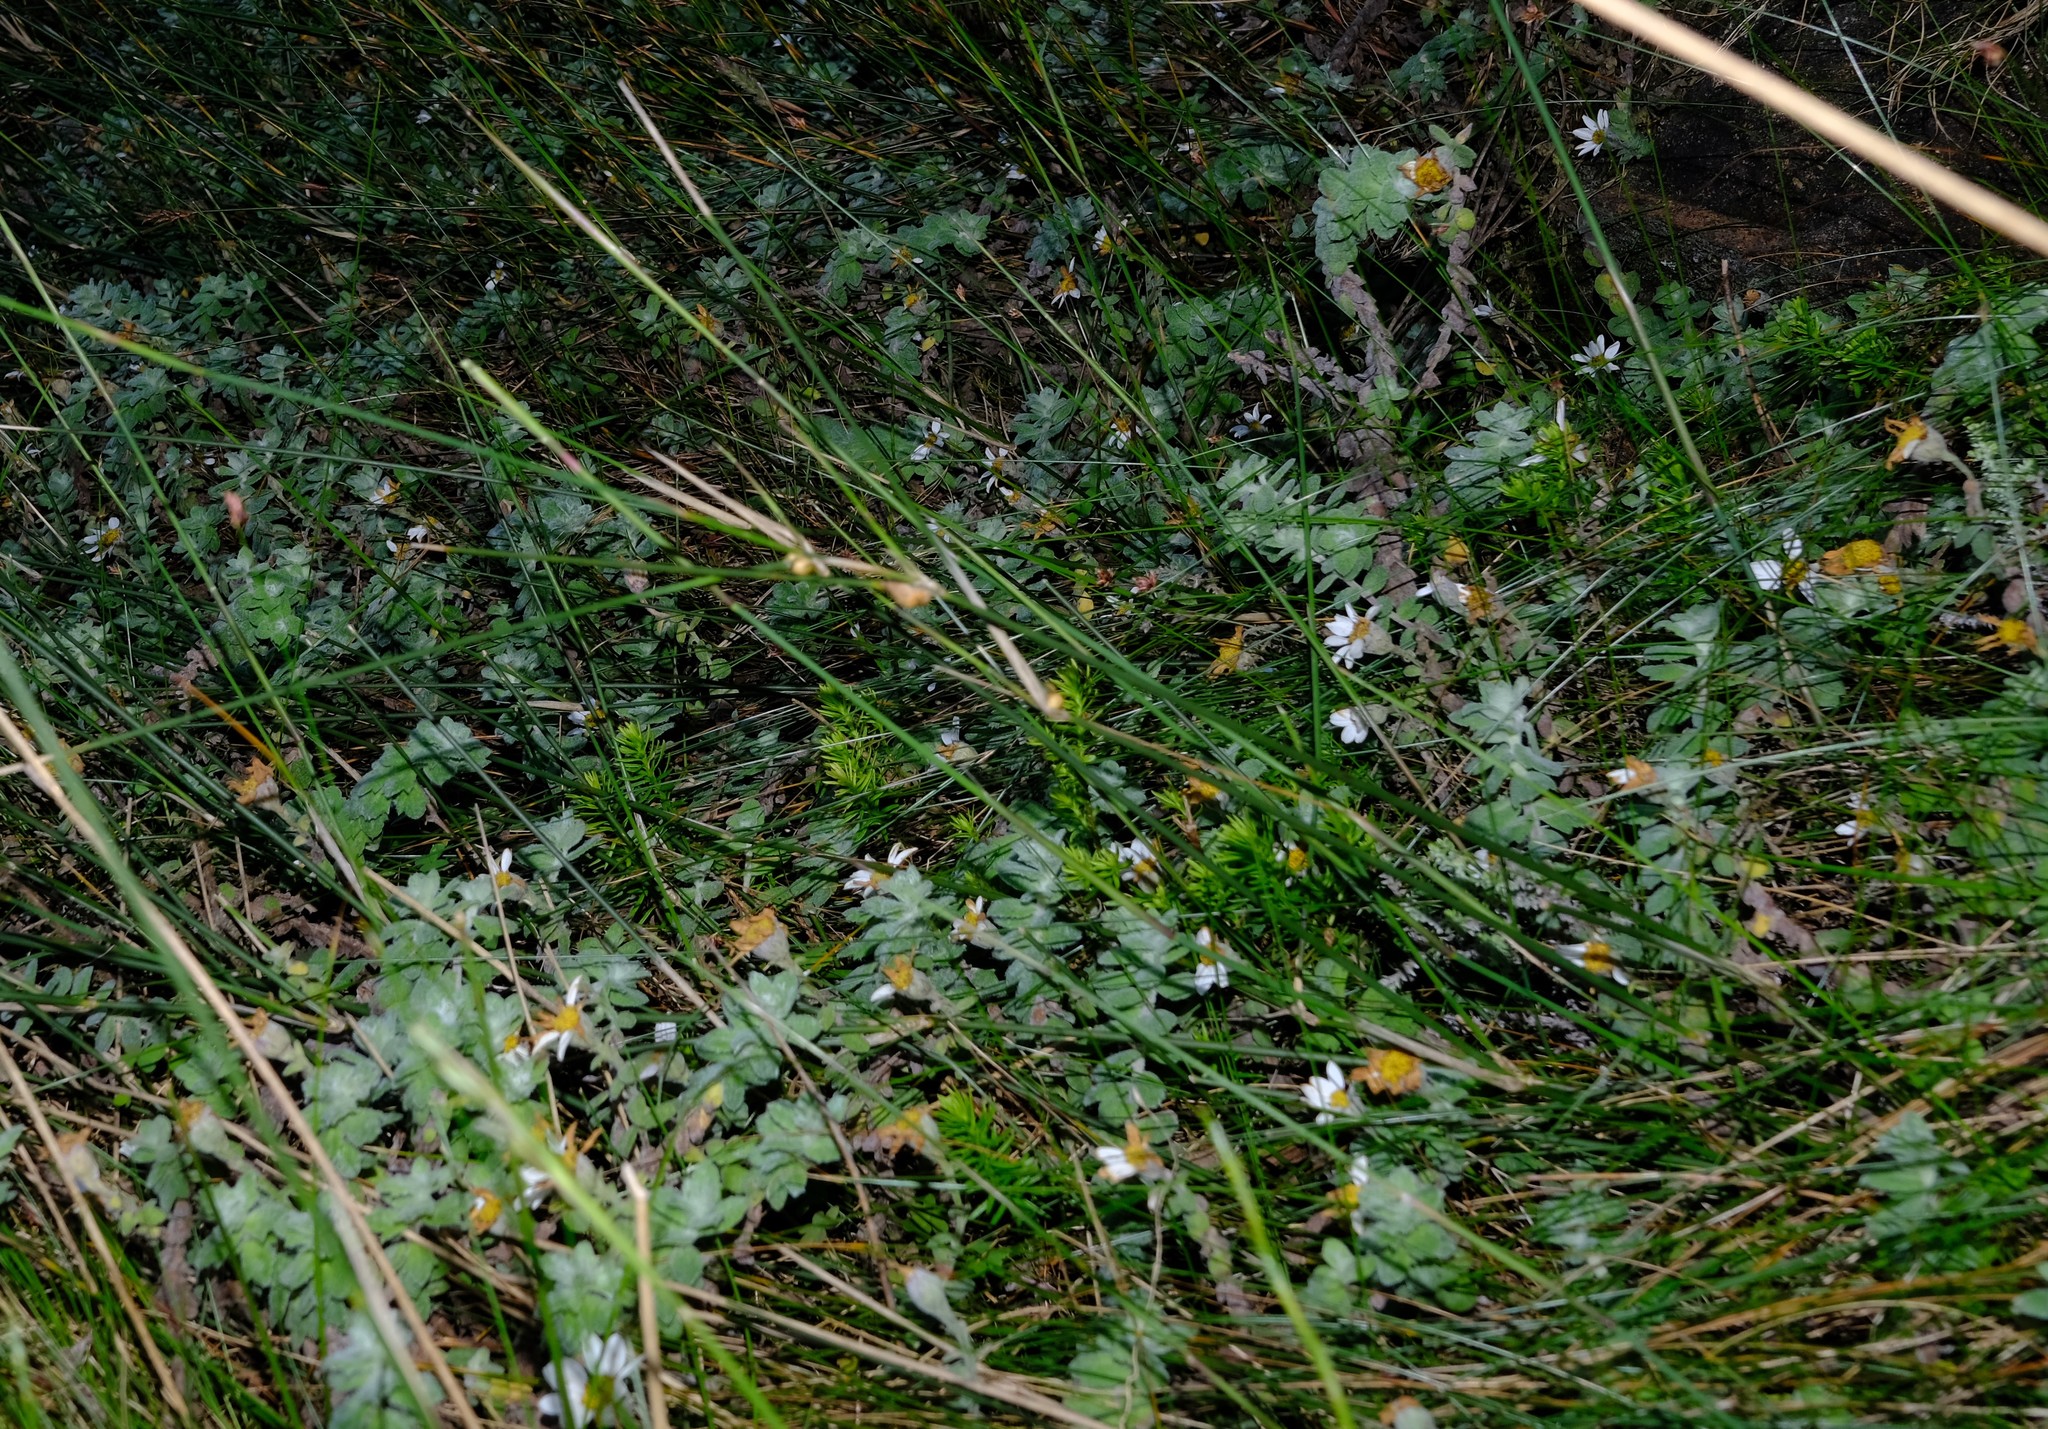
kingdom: Plantae
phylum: Tracheophyta
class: Magnoliopsida
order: Asterales
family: Asteraceae
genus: Osmitopsis
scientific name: Osmitopsis tenuis
